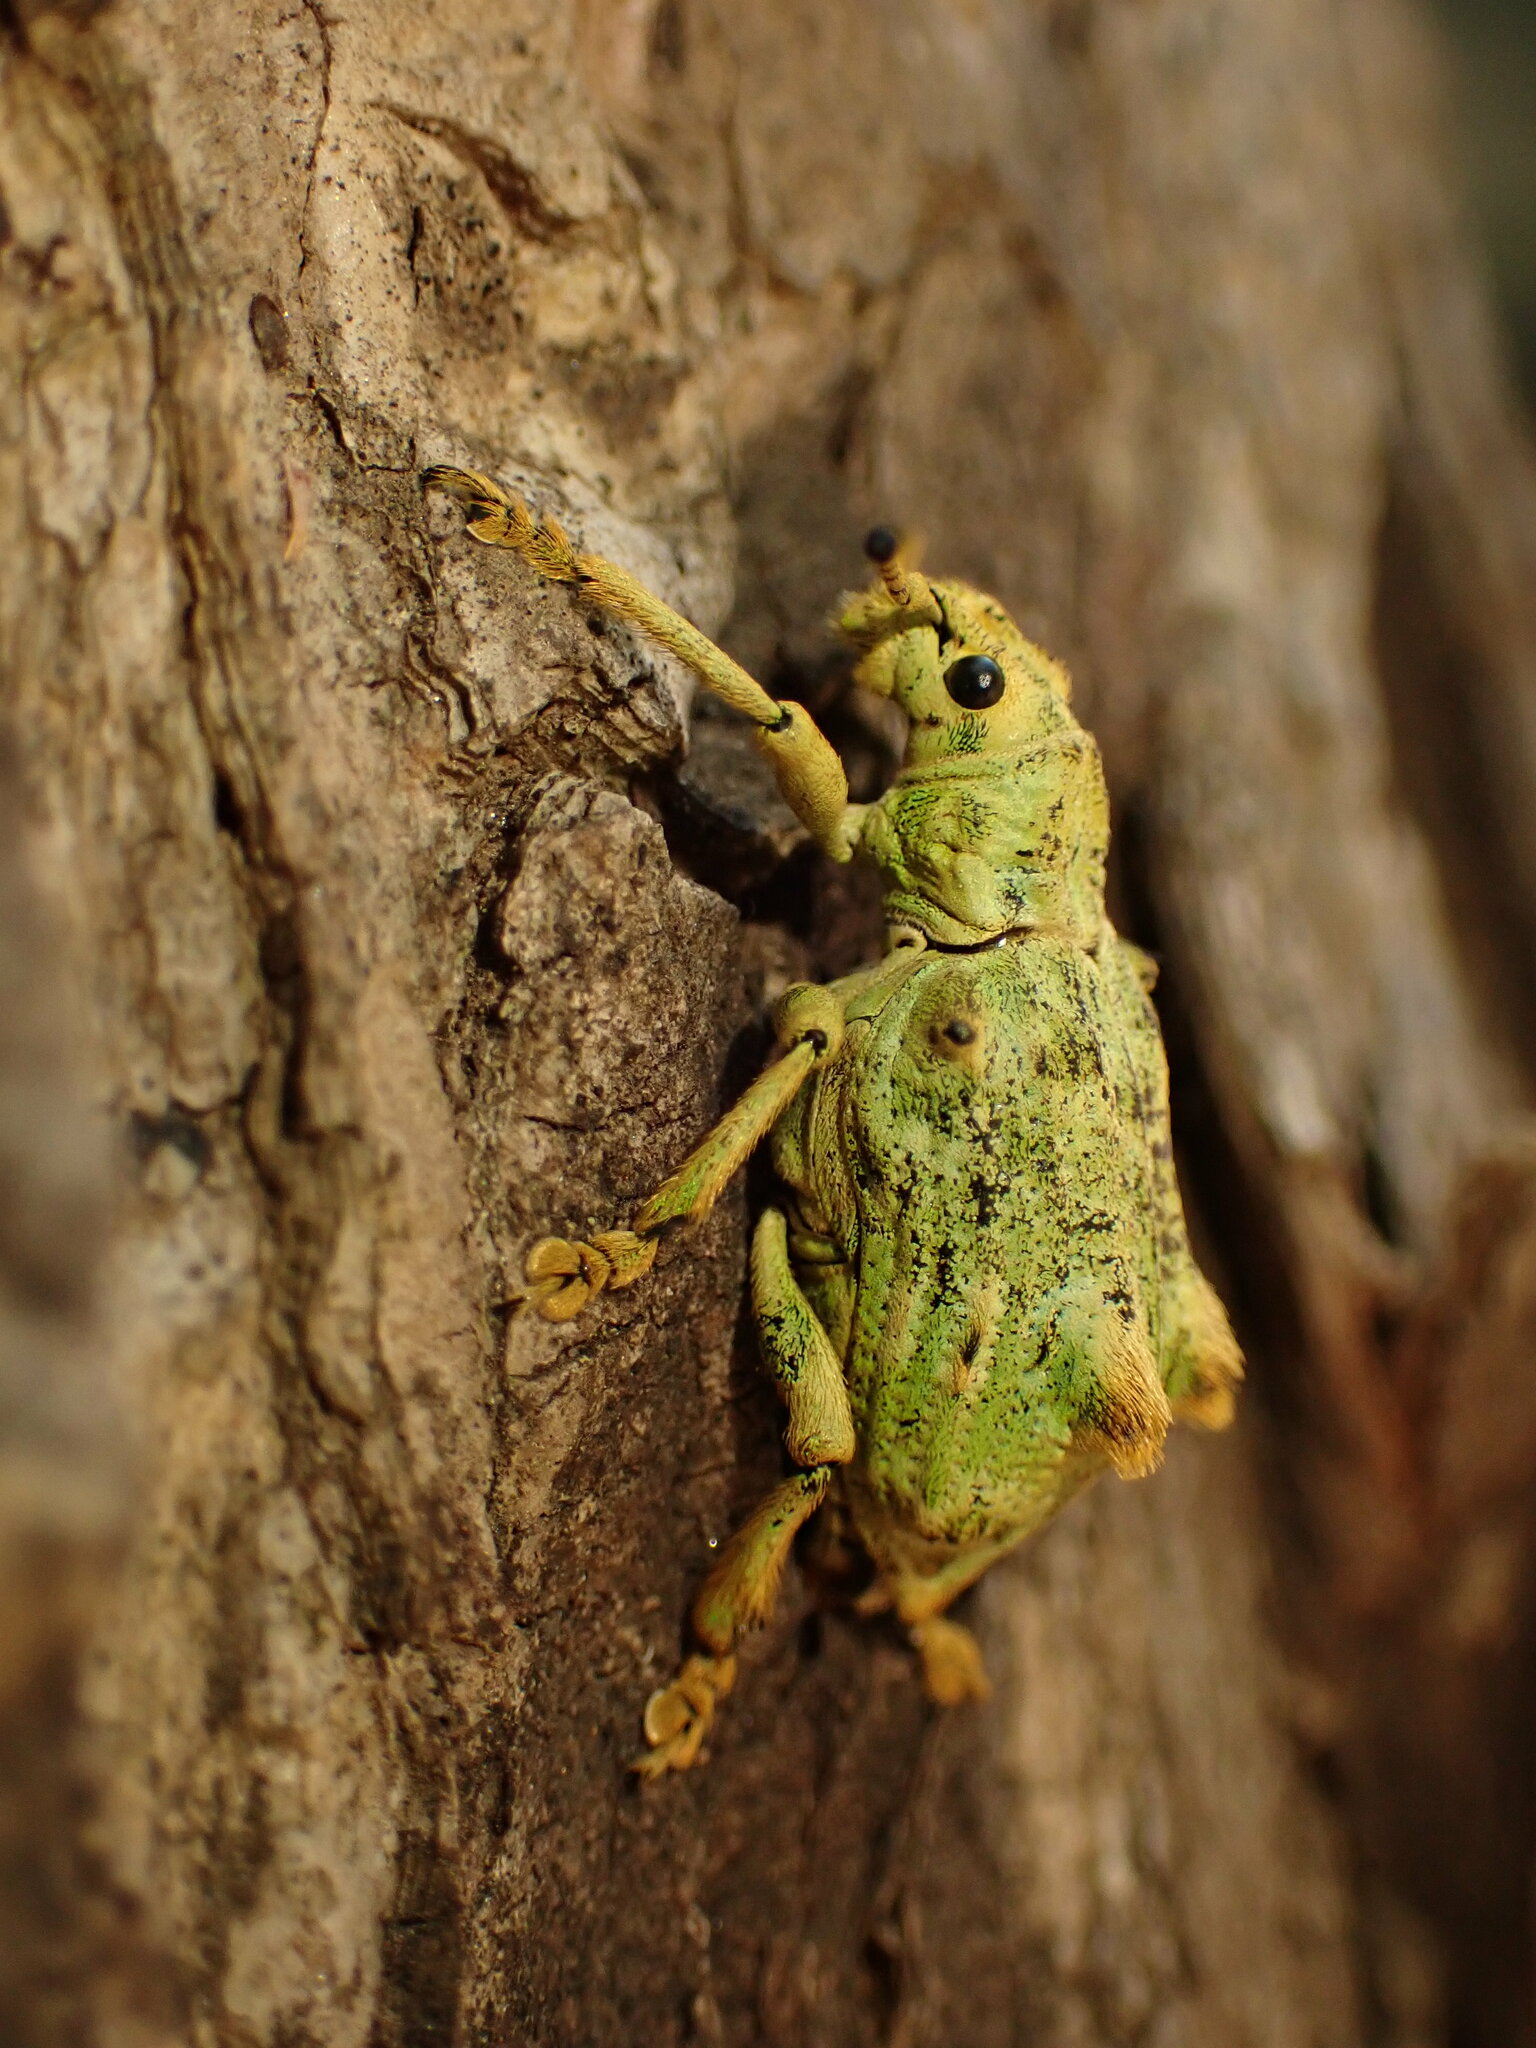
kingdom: Animalia
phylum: Arthropoda
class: Insecta
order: Coleoptera
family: Curculionidae
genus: Platyomus
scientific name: Platyomus prasinus
